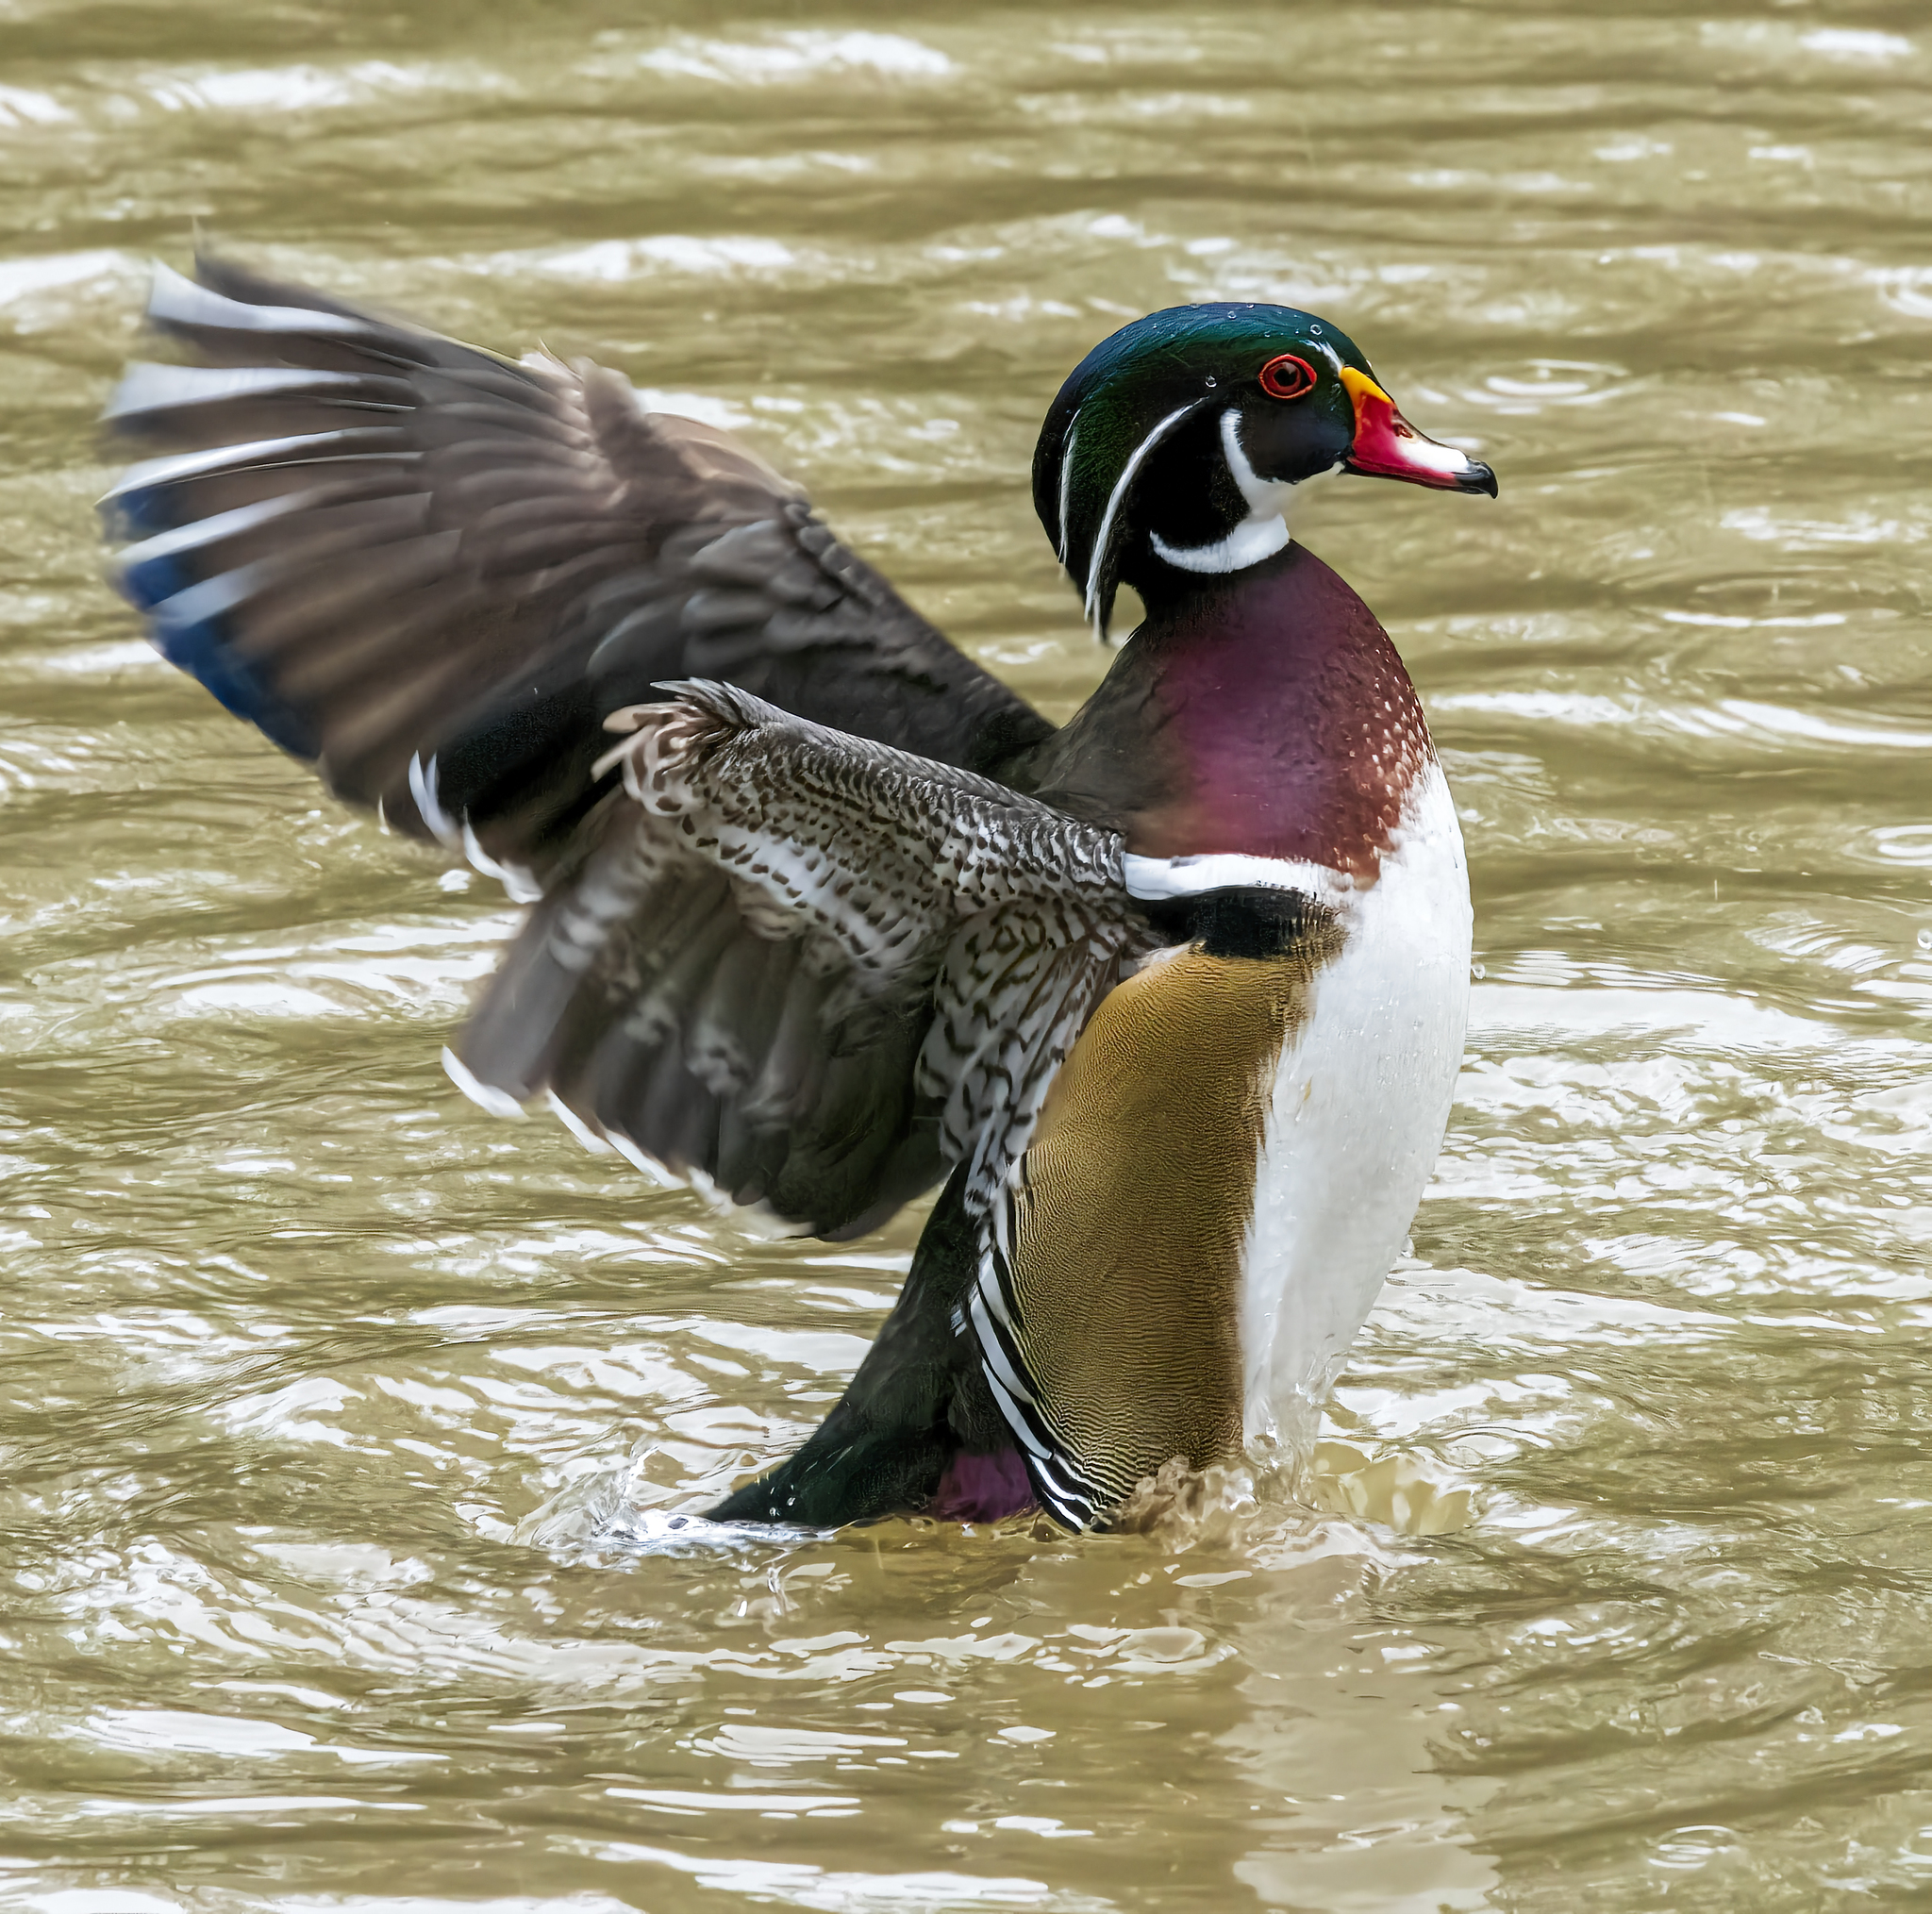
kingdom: Animalia
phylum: Chordata
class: Aves
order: Anseriformes
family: Anatidae
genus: Aix
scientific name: Aix sponsa
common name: Wood duck
